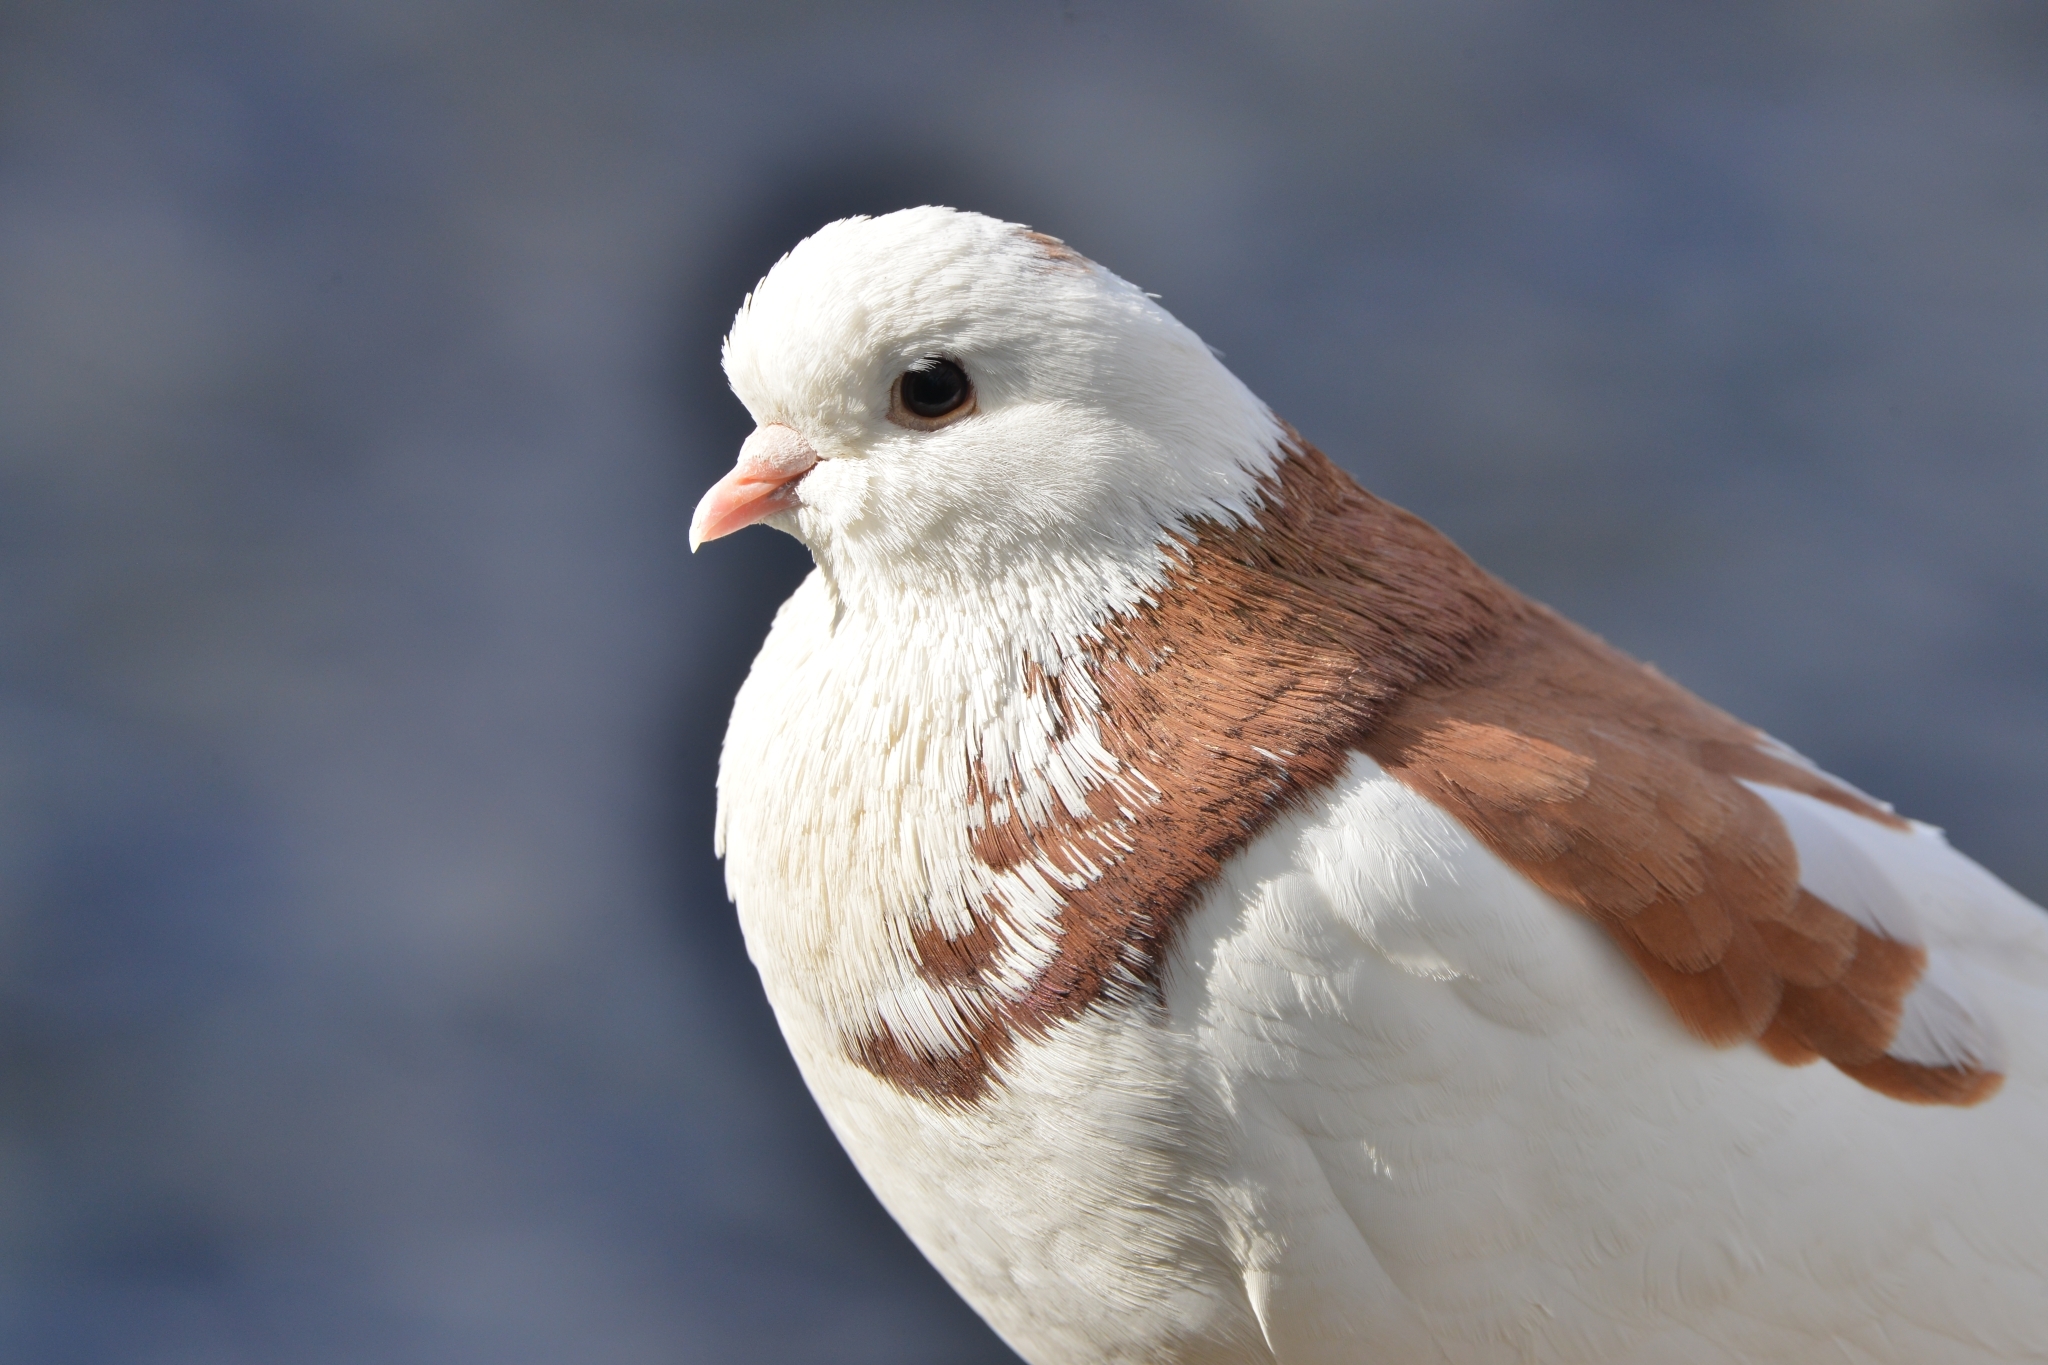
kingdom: Animalia
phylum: Chordata
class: Aves
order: Columbiformes
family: Columbidae
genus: Columba
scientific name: Columba livia
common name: Rock pigeon
